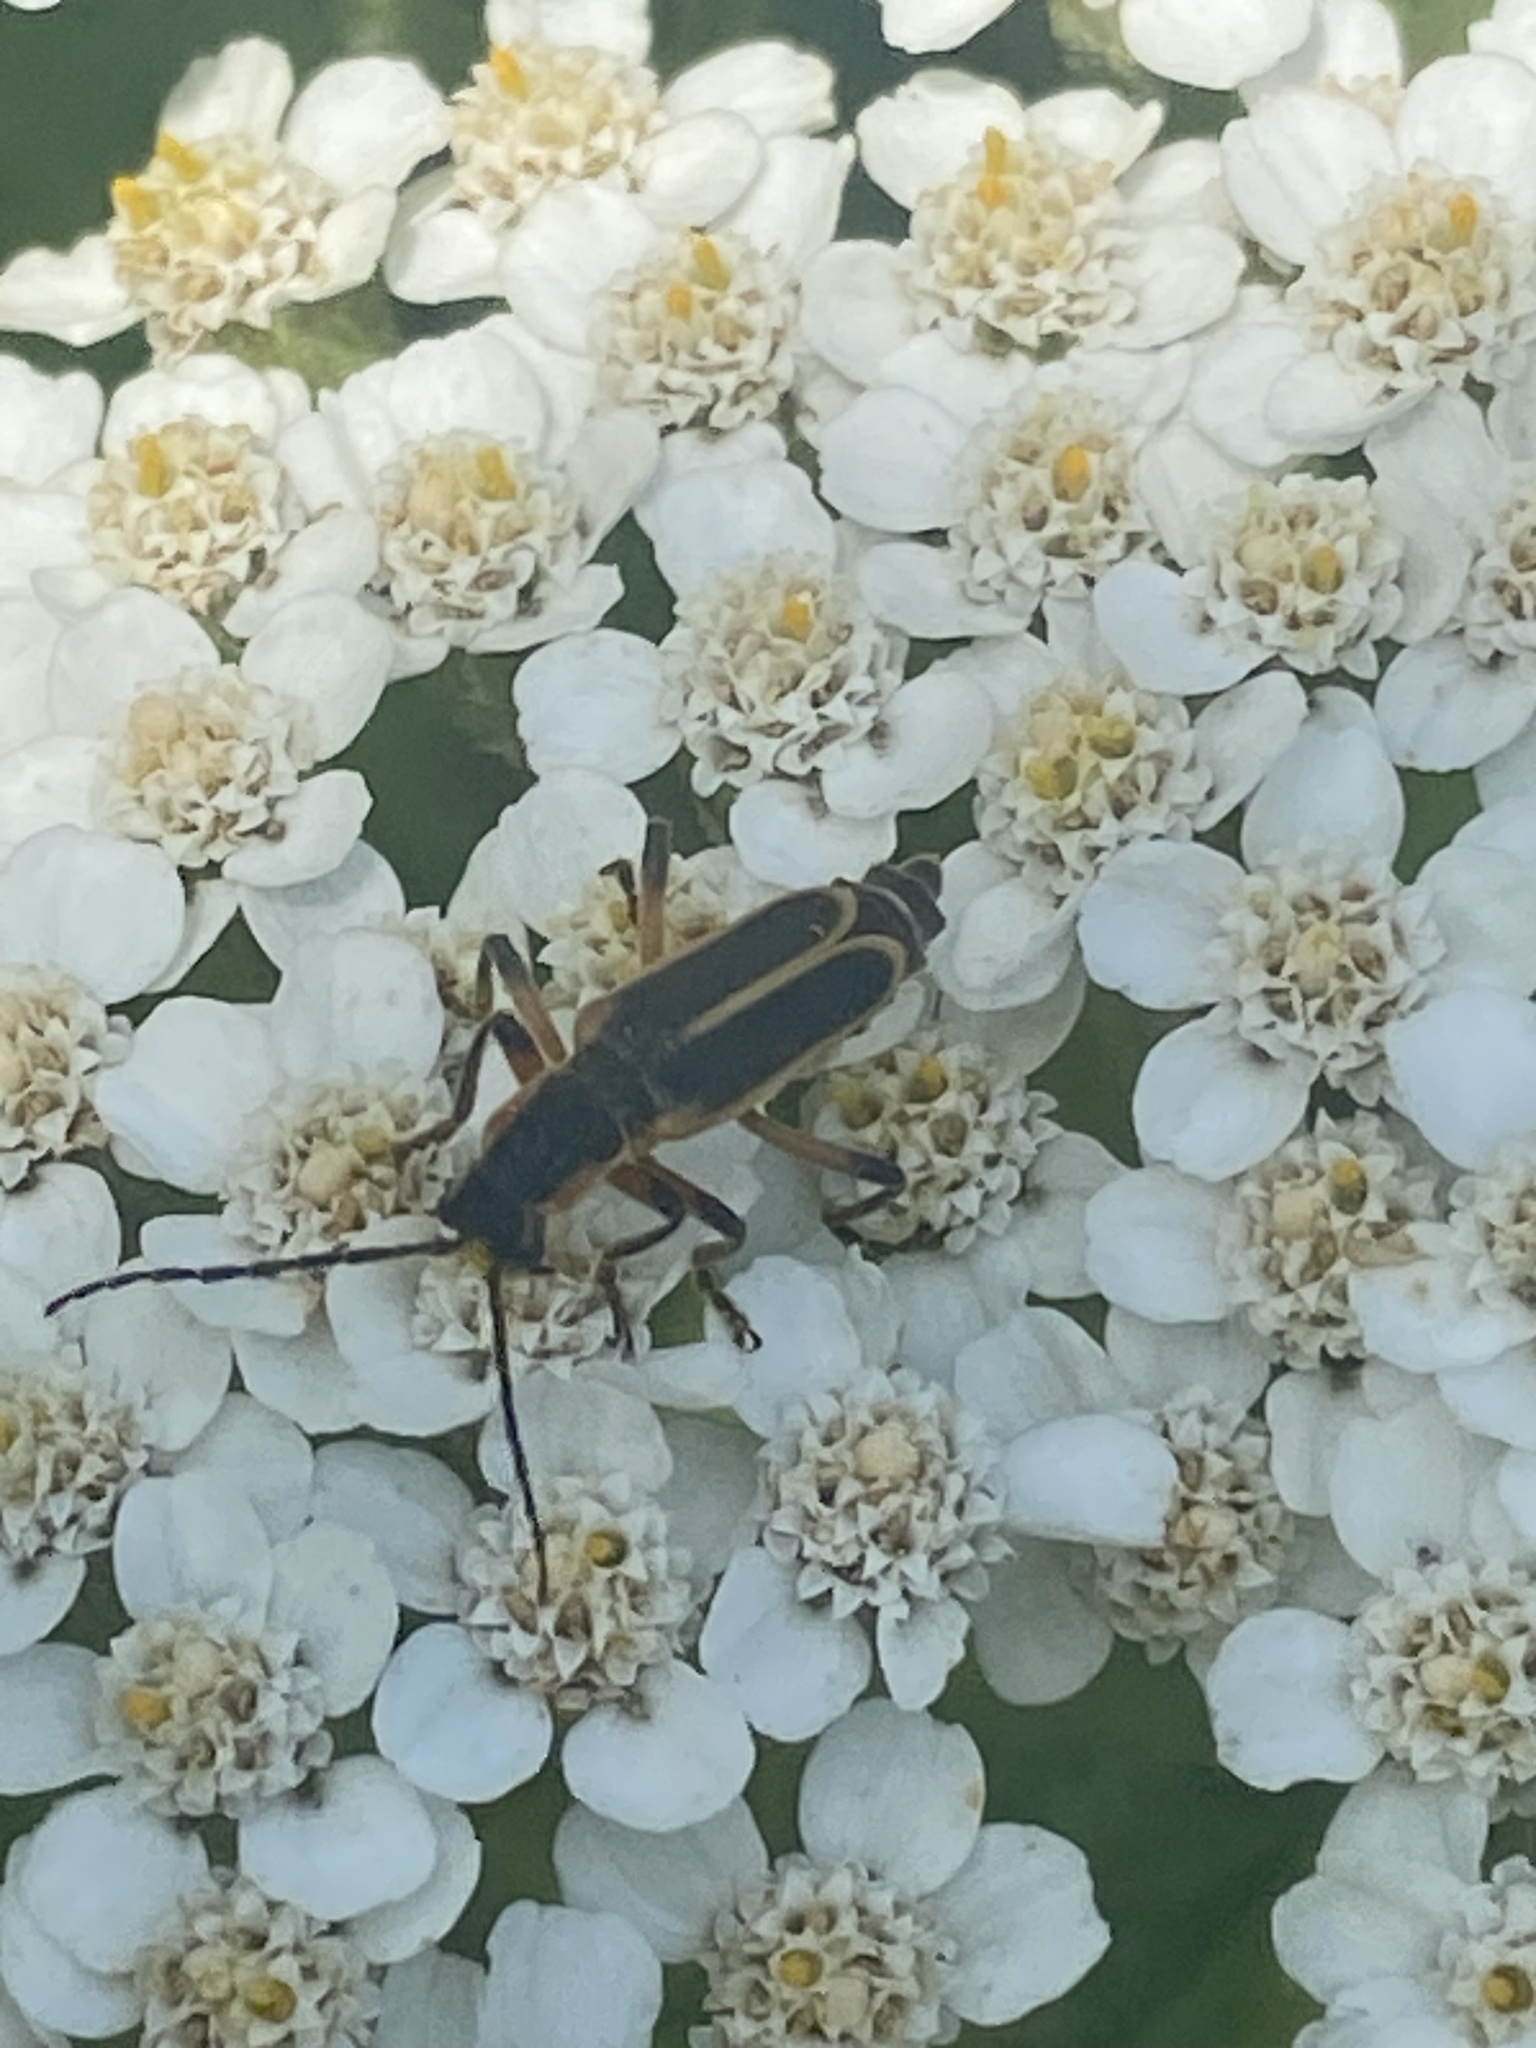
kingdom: Animalia
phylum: Arthropoda
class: Insecta
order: Coleoptera
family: Cantharidae
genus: Chauliognathus
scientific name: Chauliognathus marginatus
